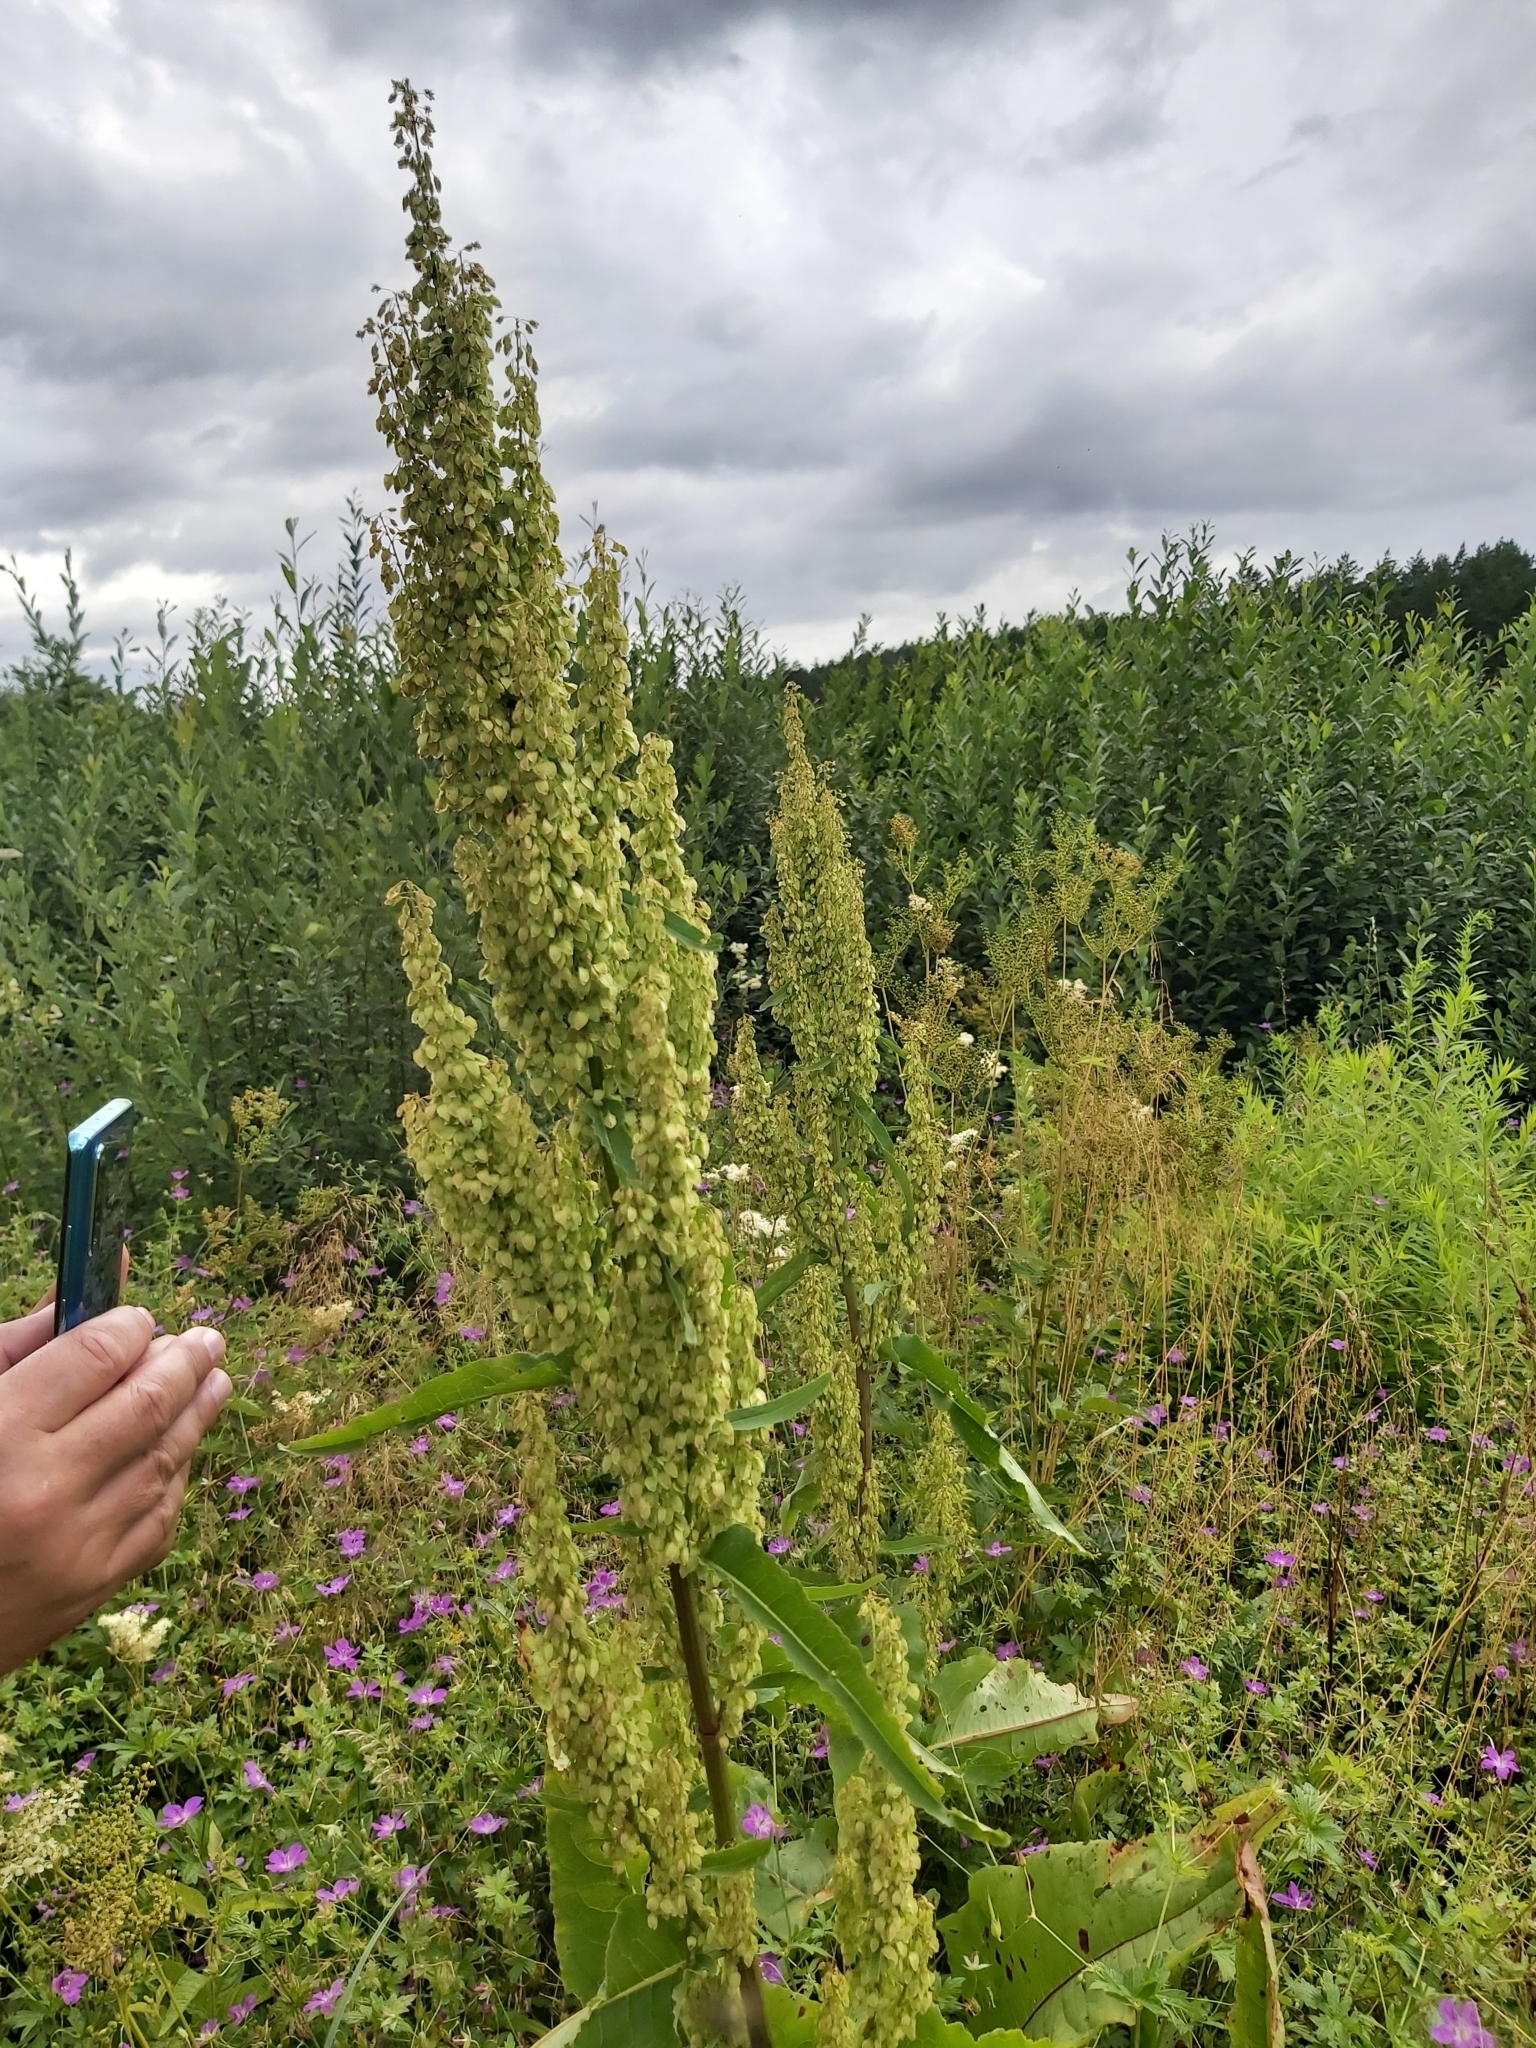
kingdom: Plantae
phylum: Tracheophyta
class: Magnoliopsida
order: Caryophyllales
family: Polygonaceae
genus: Rumex
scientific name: Rumex aquaticus
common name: Scottish dock
